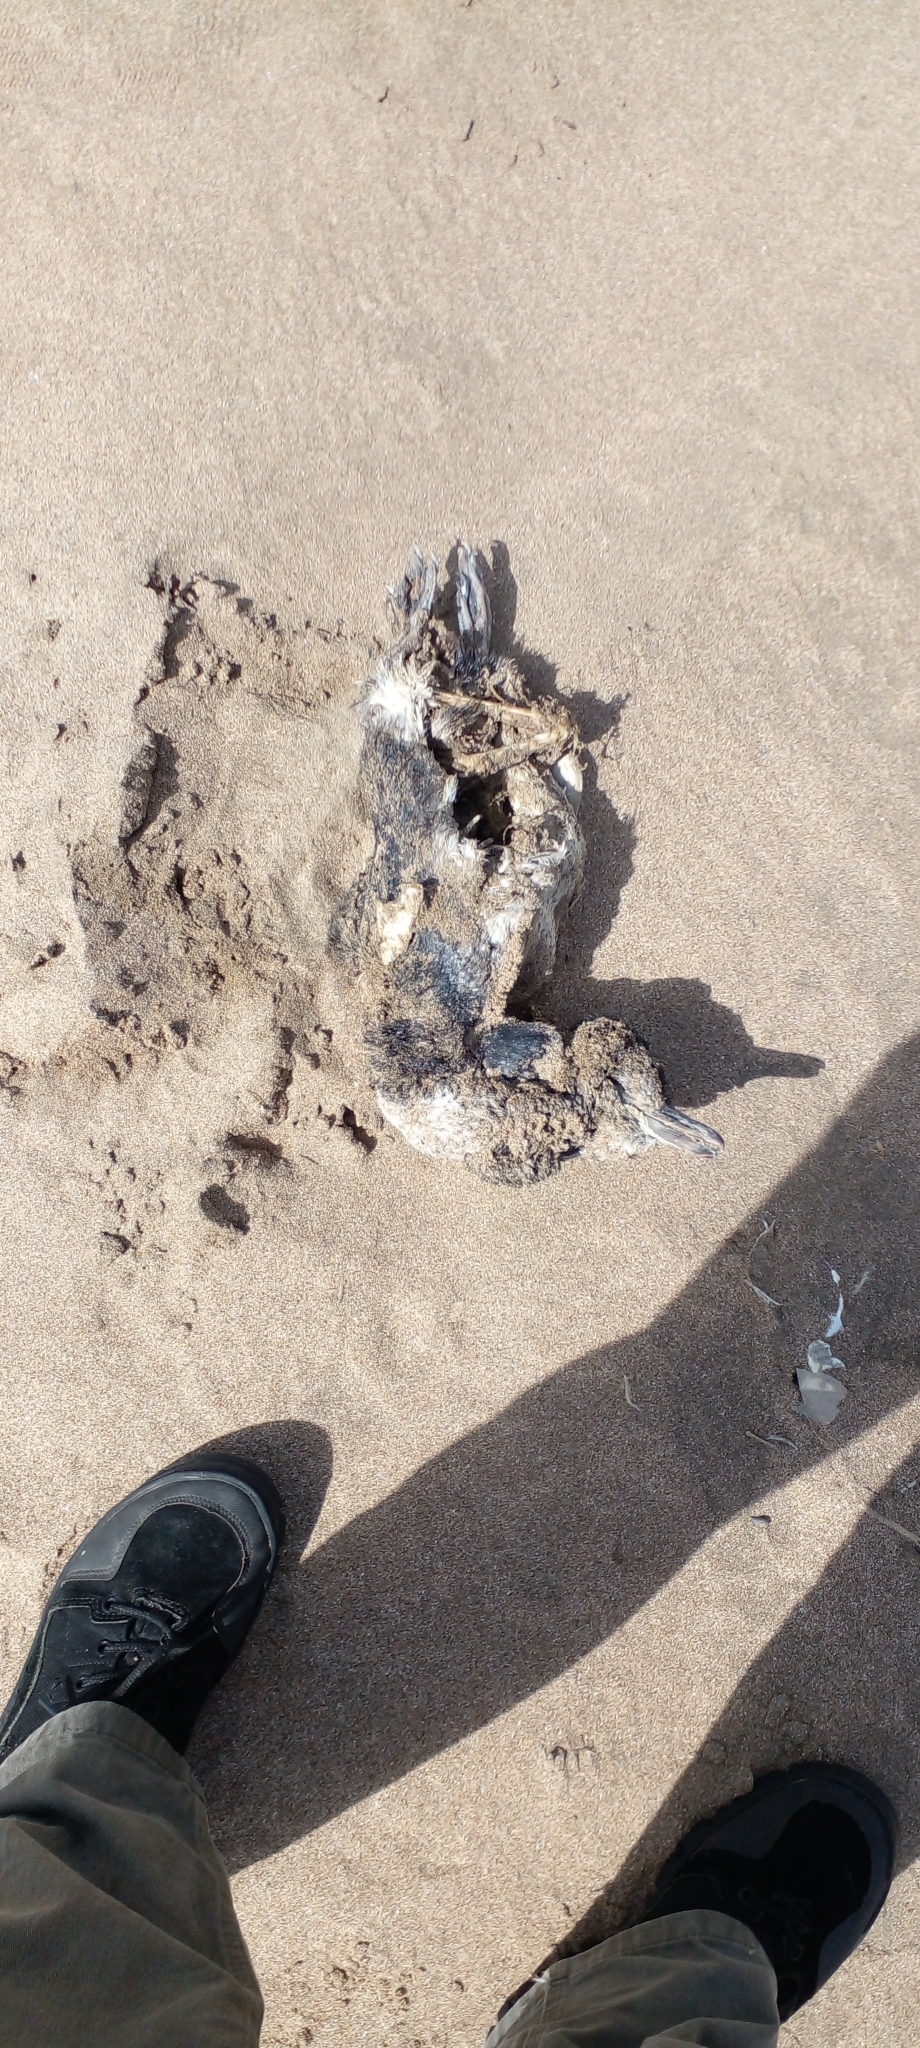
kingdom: Animalia
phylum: Chordata
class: Aves
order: Sphenisciformes
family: Spheniscidae
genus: Spheniscus
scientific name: Spheniscus magellanicus
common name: Magellanic penguin
